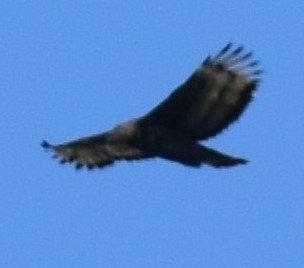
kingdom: Animalia
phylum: Chordata
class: Aves
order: Accipitriformes
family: Accipitridae
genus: Stephanoaetus
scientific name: Stephanoaetus coronatus
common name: Crowned eagle
